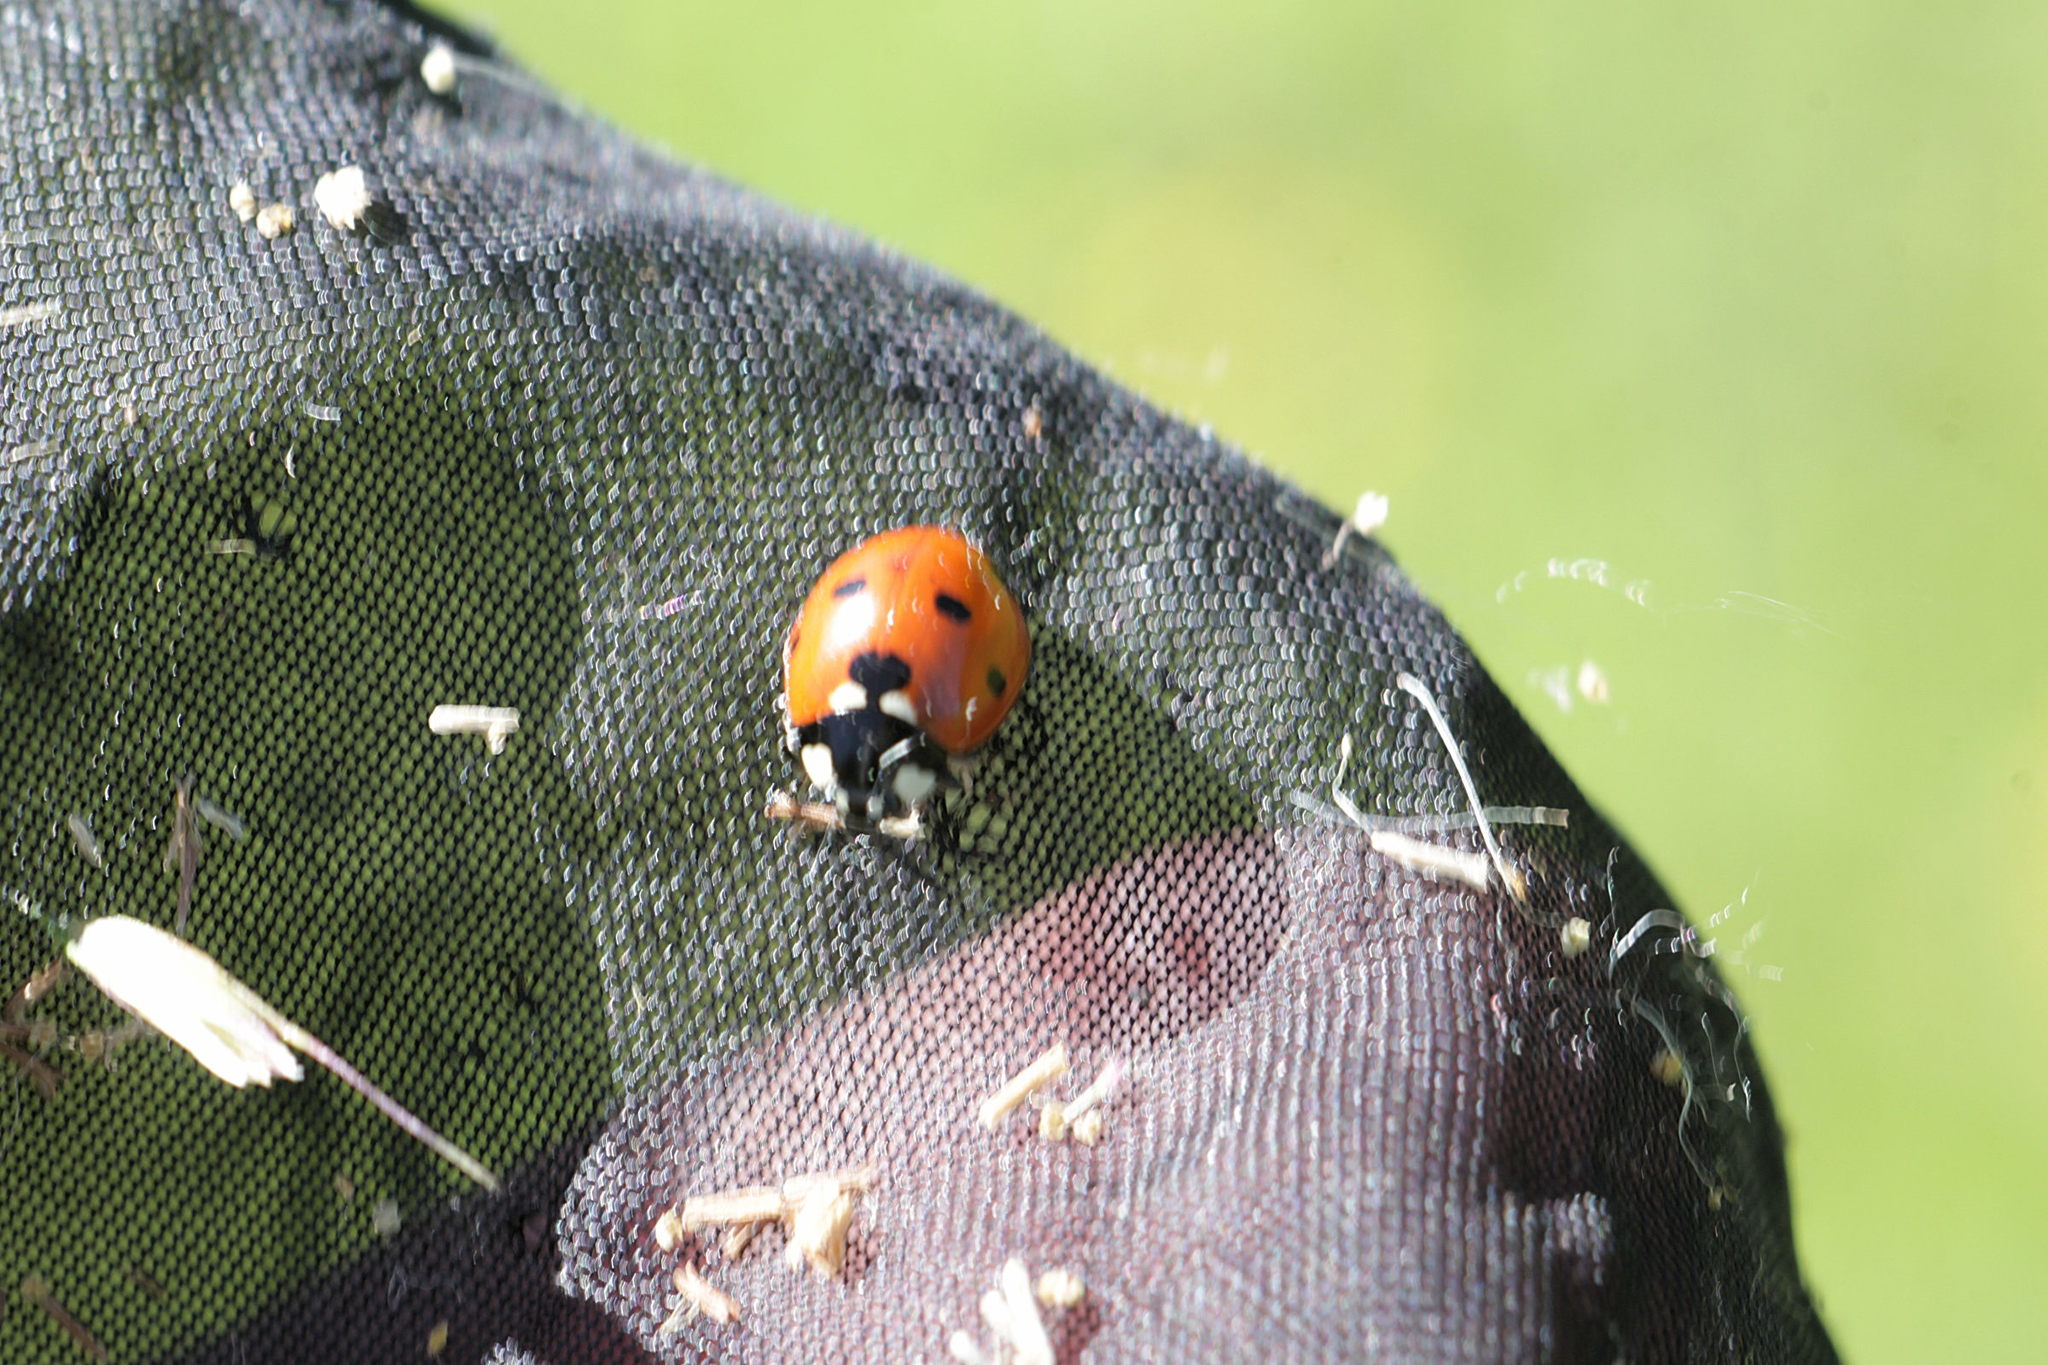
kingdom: Animalia
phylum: Arthropoda
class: Insecta
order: Coleoptera
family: Coccinellidae
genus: Coccinella
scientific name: Coccinella septempunctata
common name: Sevenspotted lady beetle
